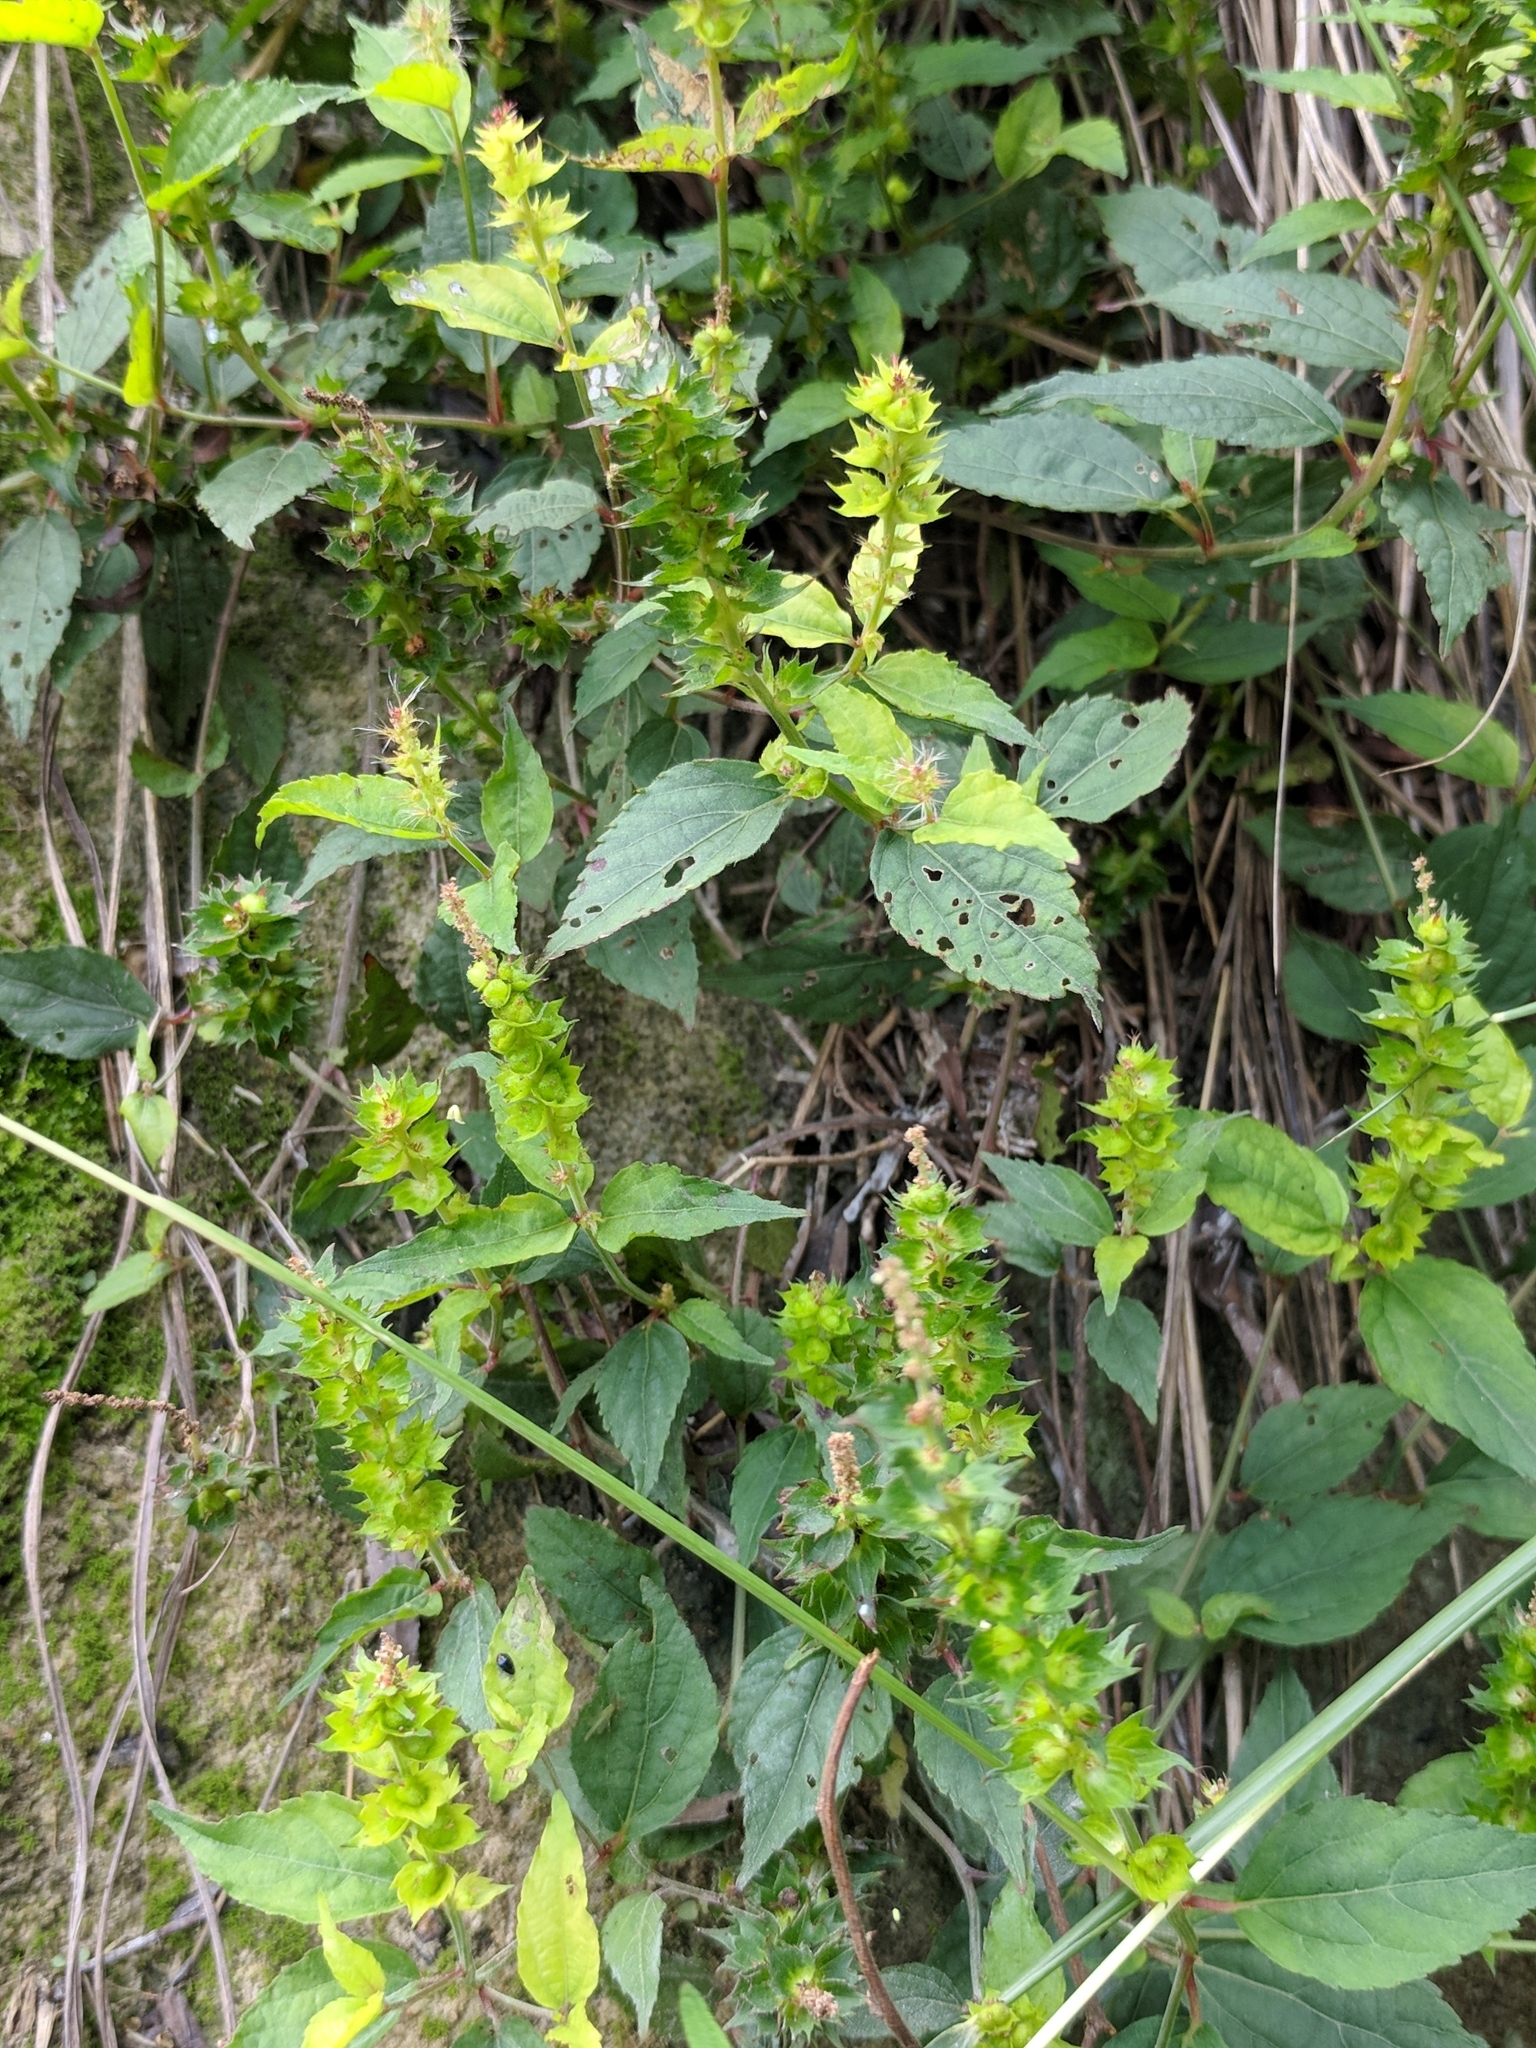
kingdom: Plantae
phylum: Tracheophyta
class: Magnoliopsida
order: Malpighiales
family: Euphorbiaceae
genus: Acalypha
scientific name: Acalypha phleoides
